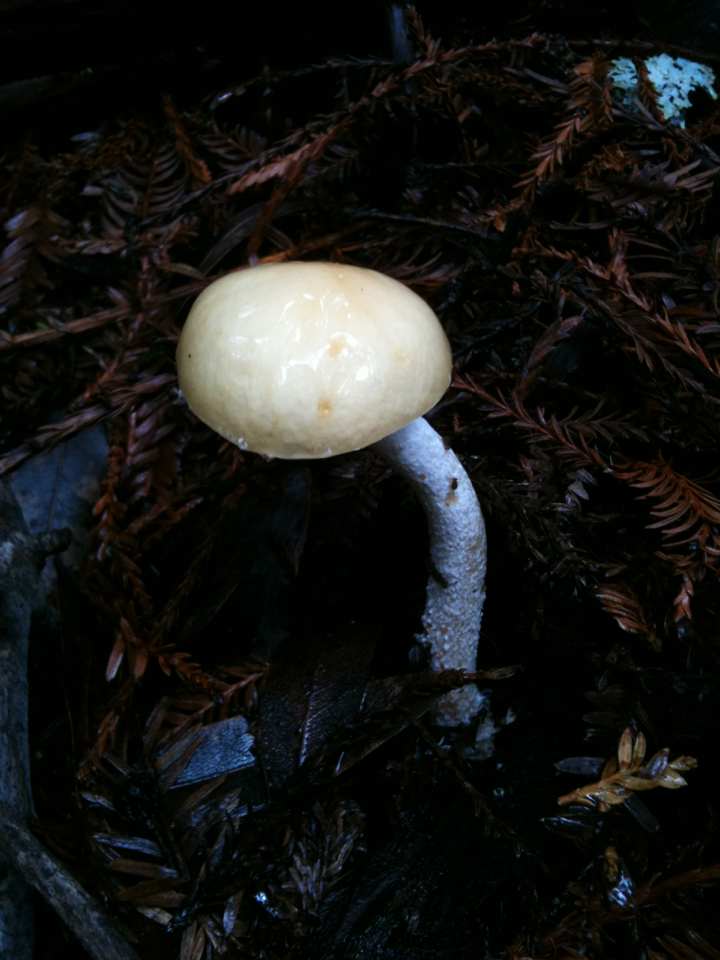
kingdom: Fungi
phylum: Basidiomycota
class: Agaricomycetes
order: Agaricales
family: Strophariaceae
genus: Stropharia
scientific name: Stropharia ambigua
